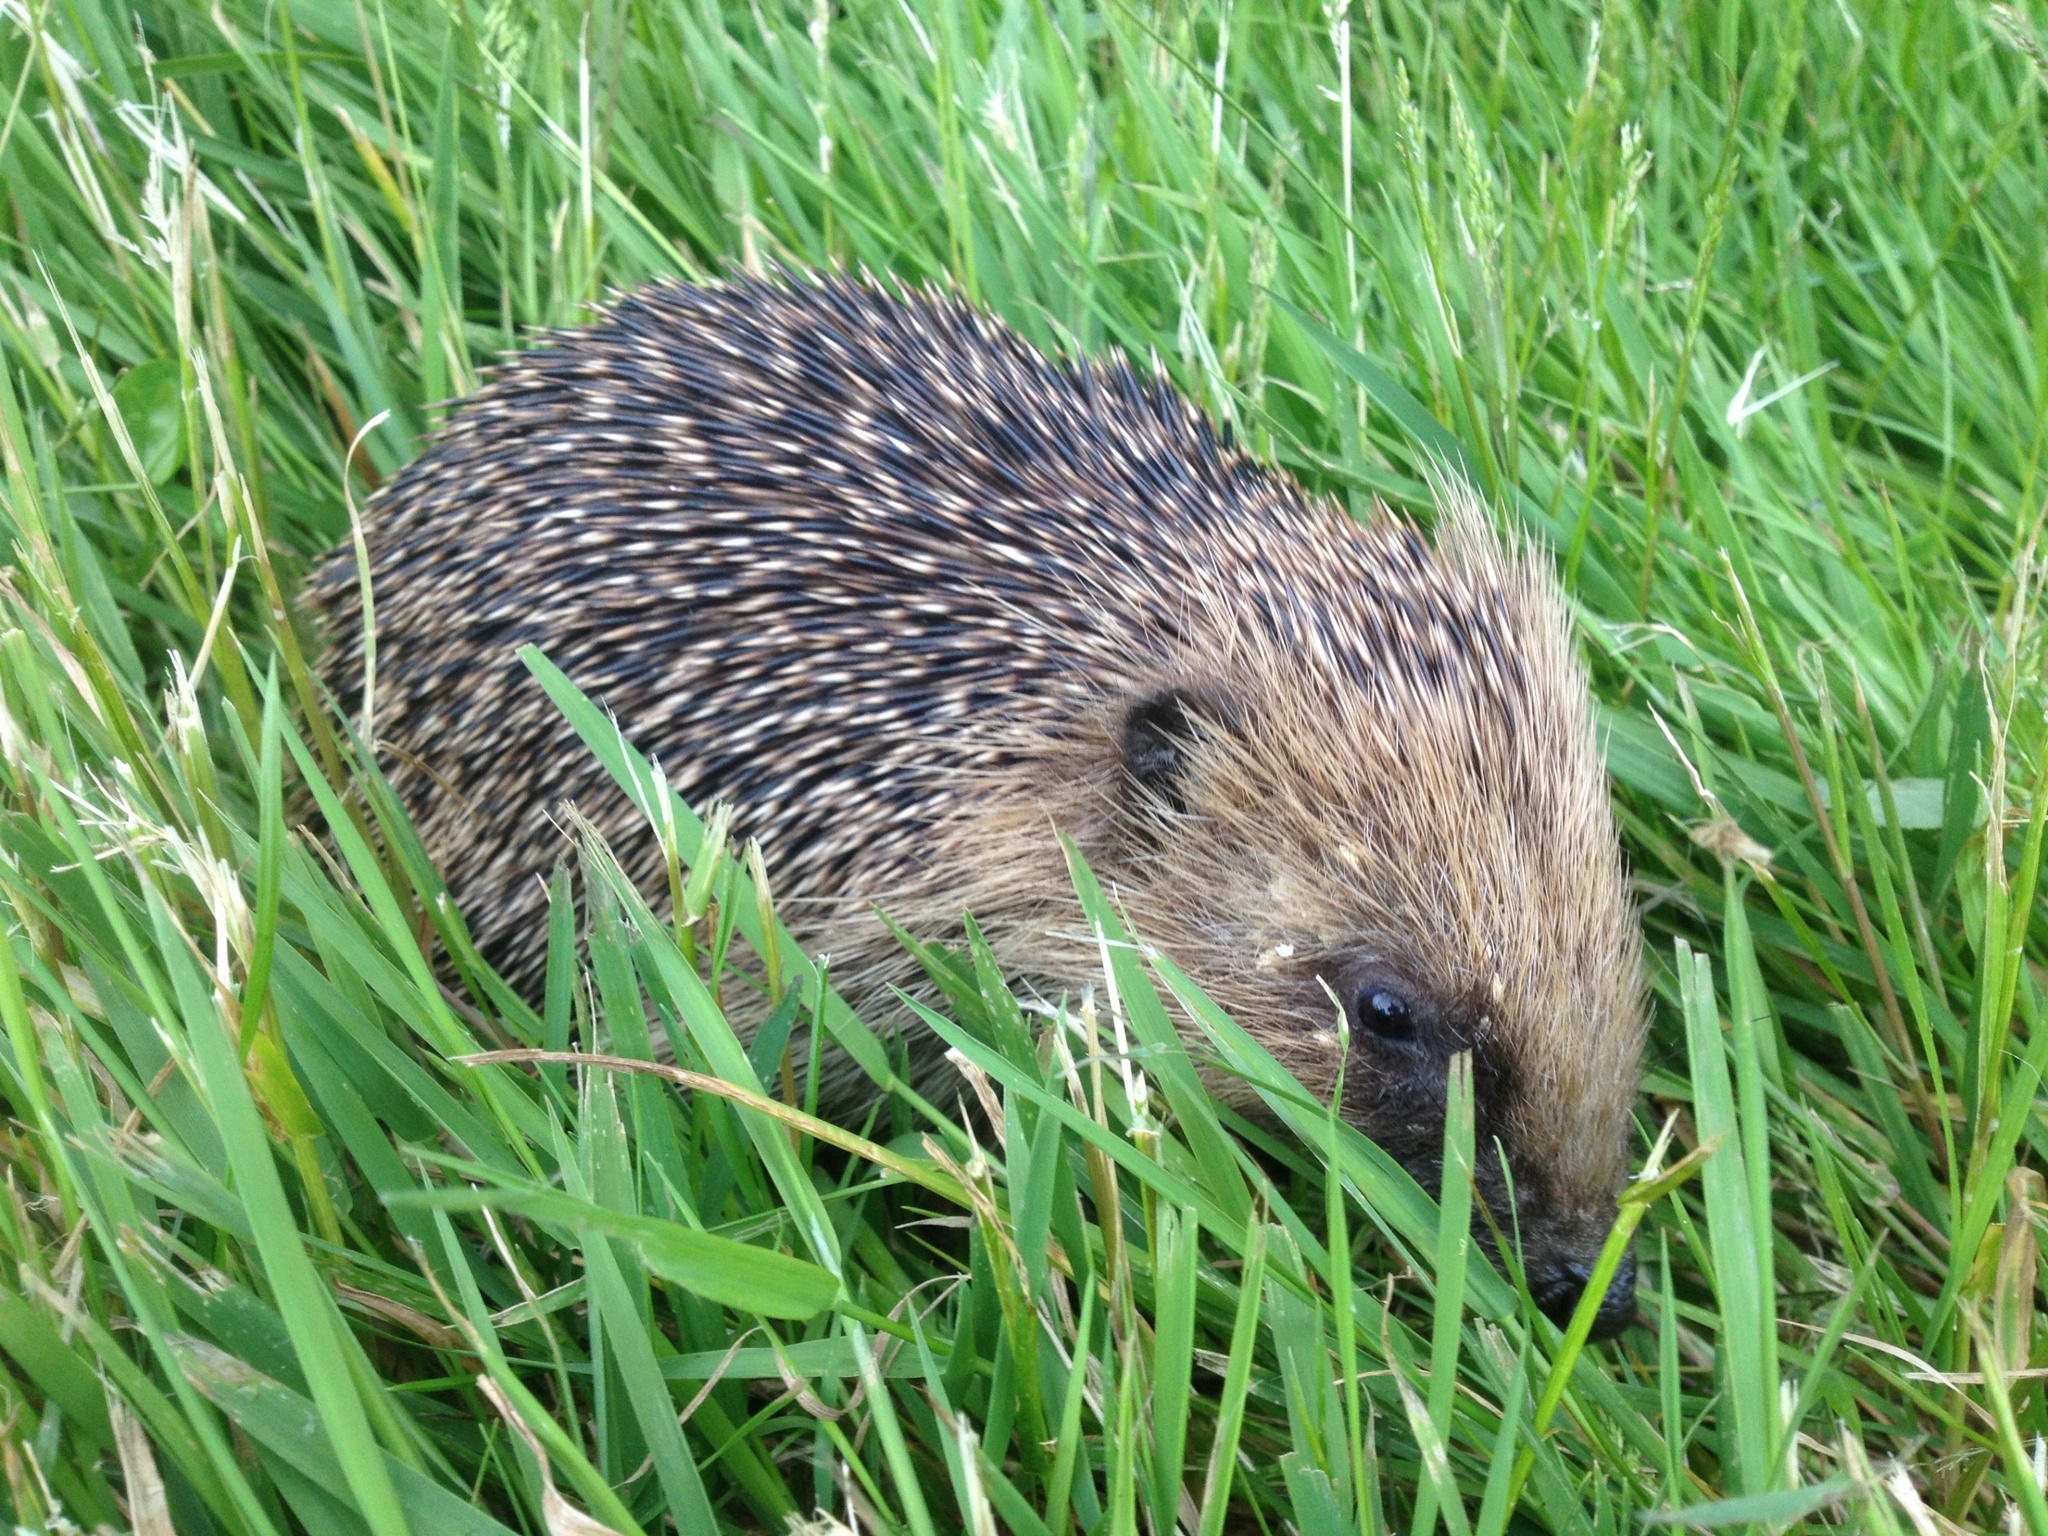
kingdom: Animalia
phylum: Chordata
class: Mammalia
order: Erinaceomorpha
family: Erinaceidae
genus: Erinaceus
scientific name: Erinaceus europaeus
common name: West european hedgehog
